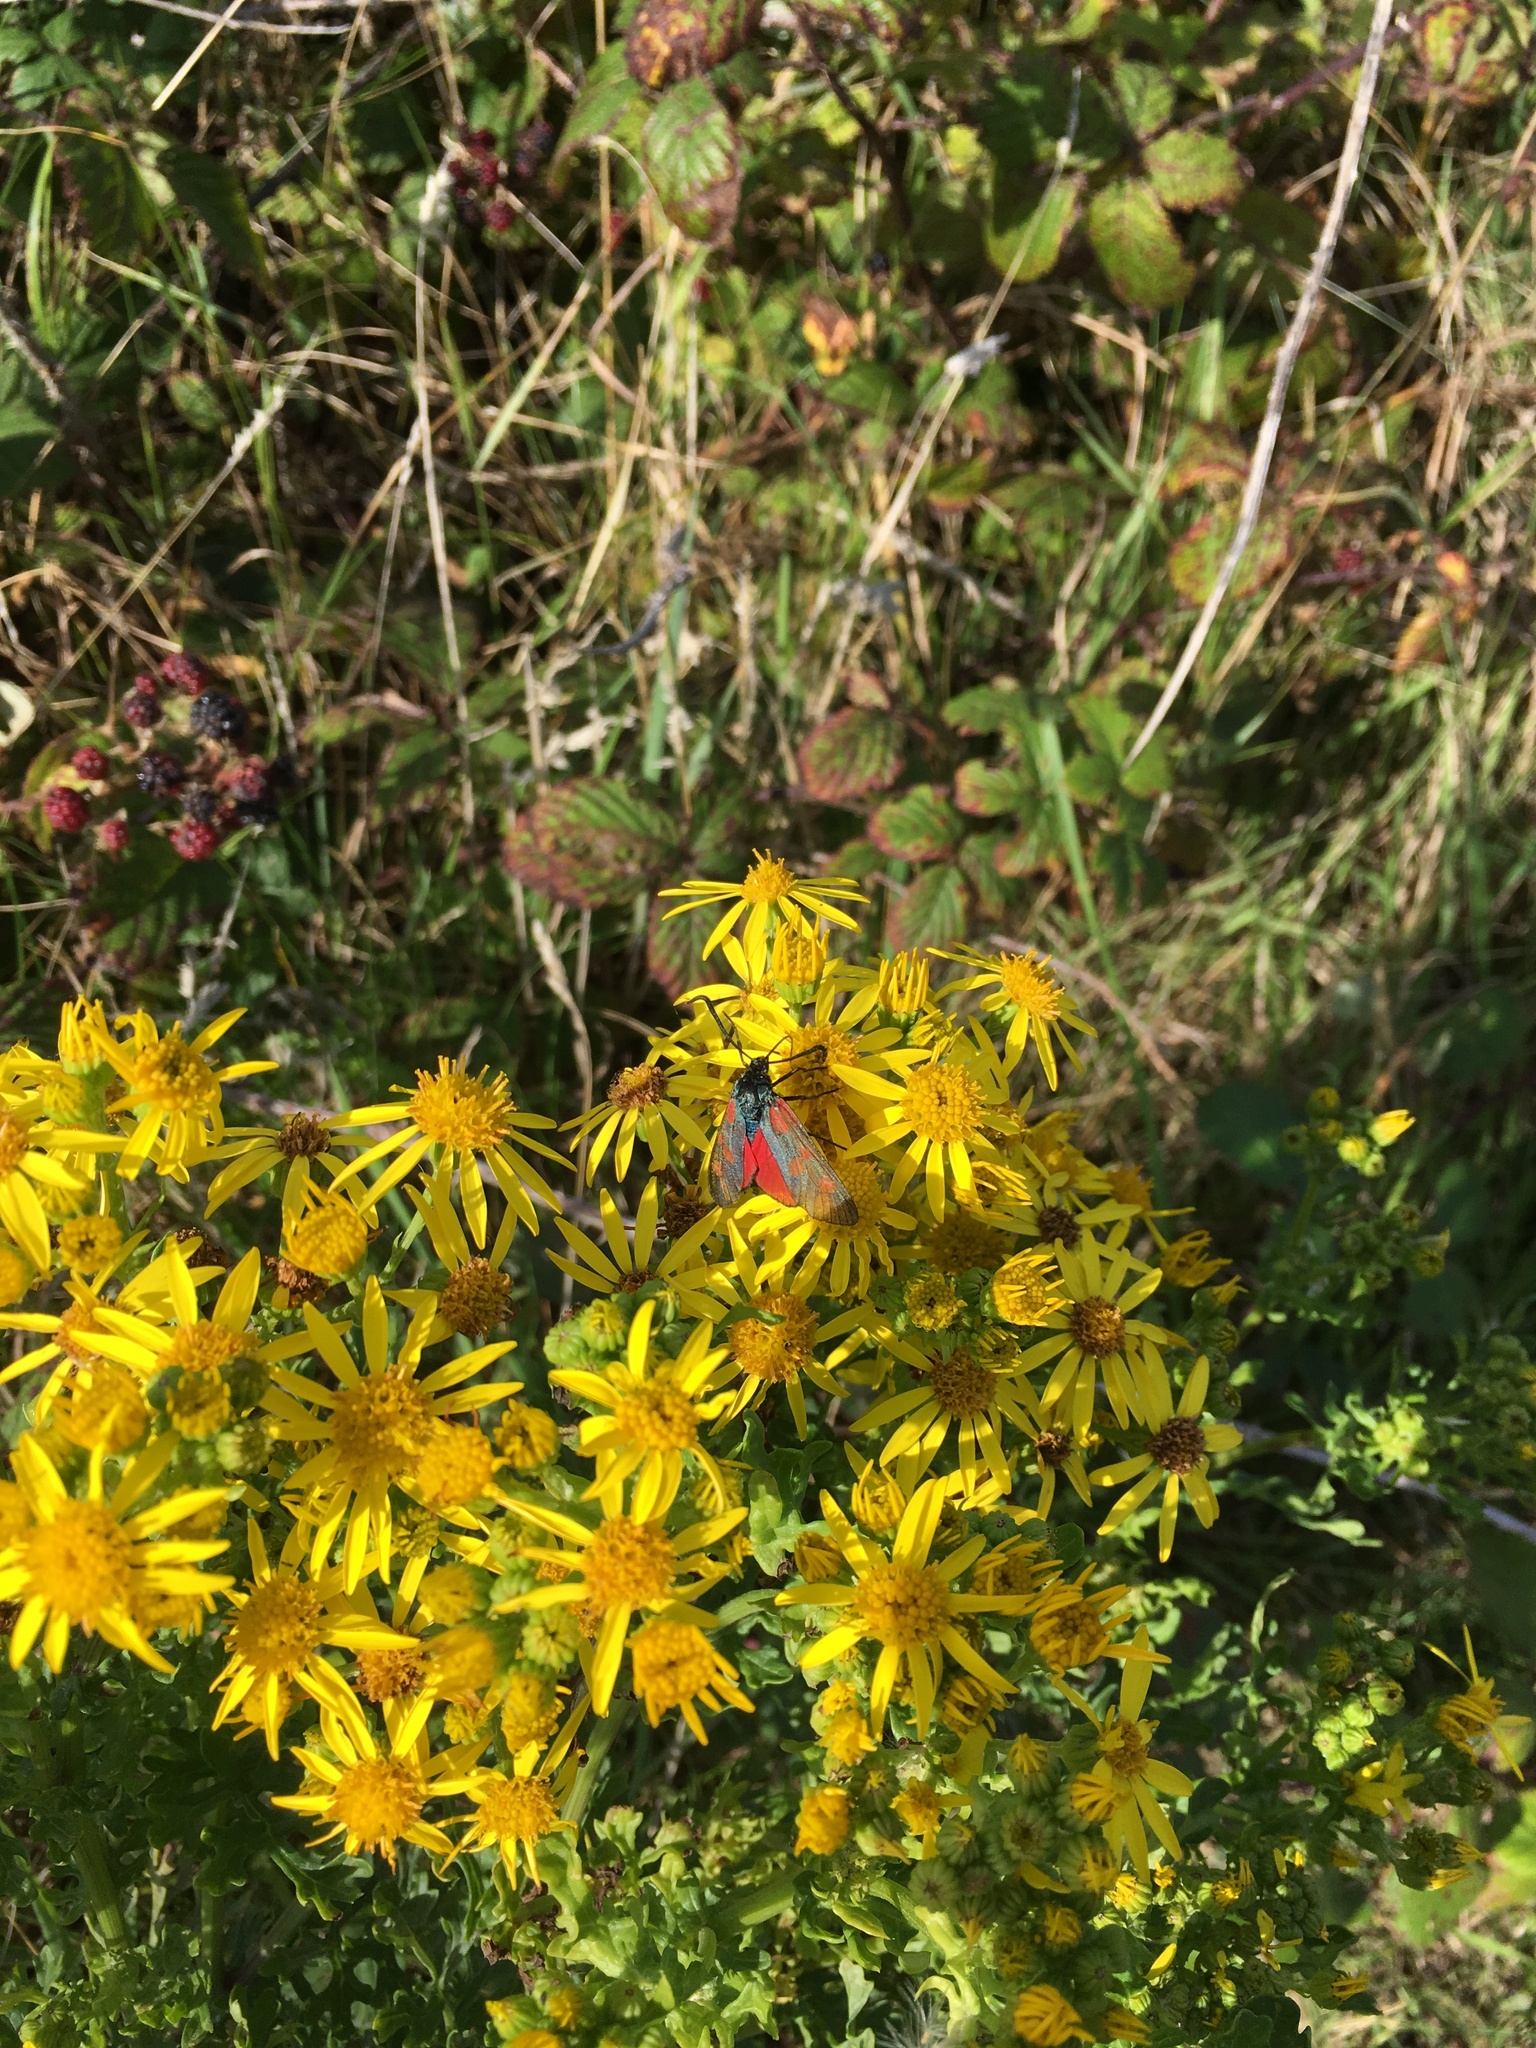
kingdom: Animalia
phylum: Arthropoda
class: Insecta
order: Lepidoptera
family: Zygaenidae
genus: Zygaena
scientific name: Zygaena filipendulae
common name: Six-spot burnet
